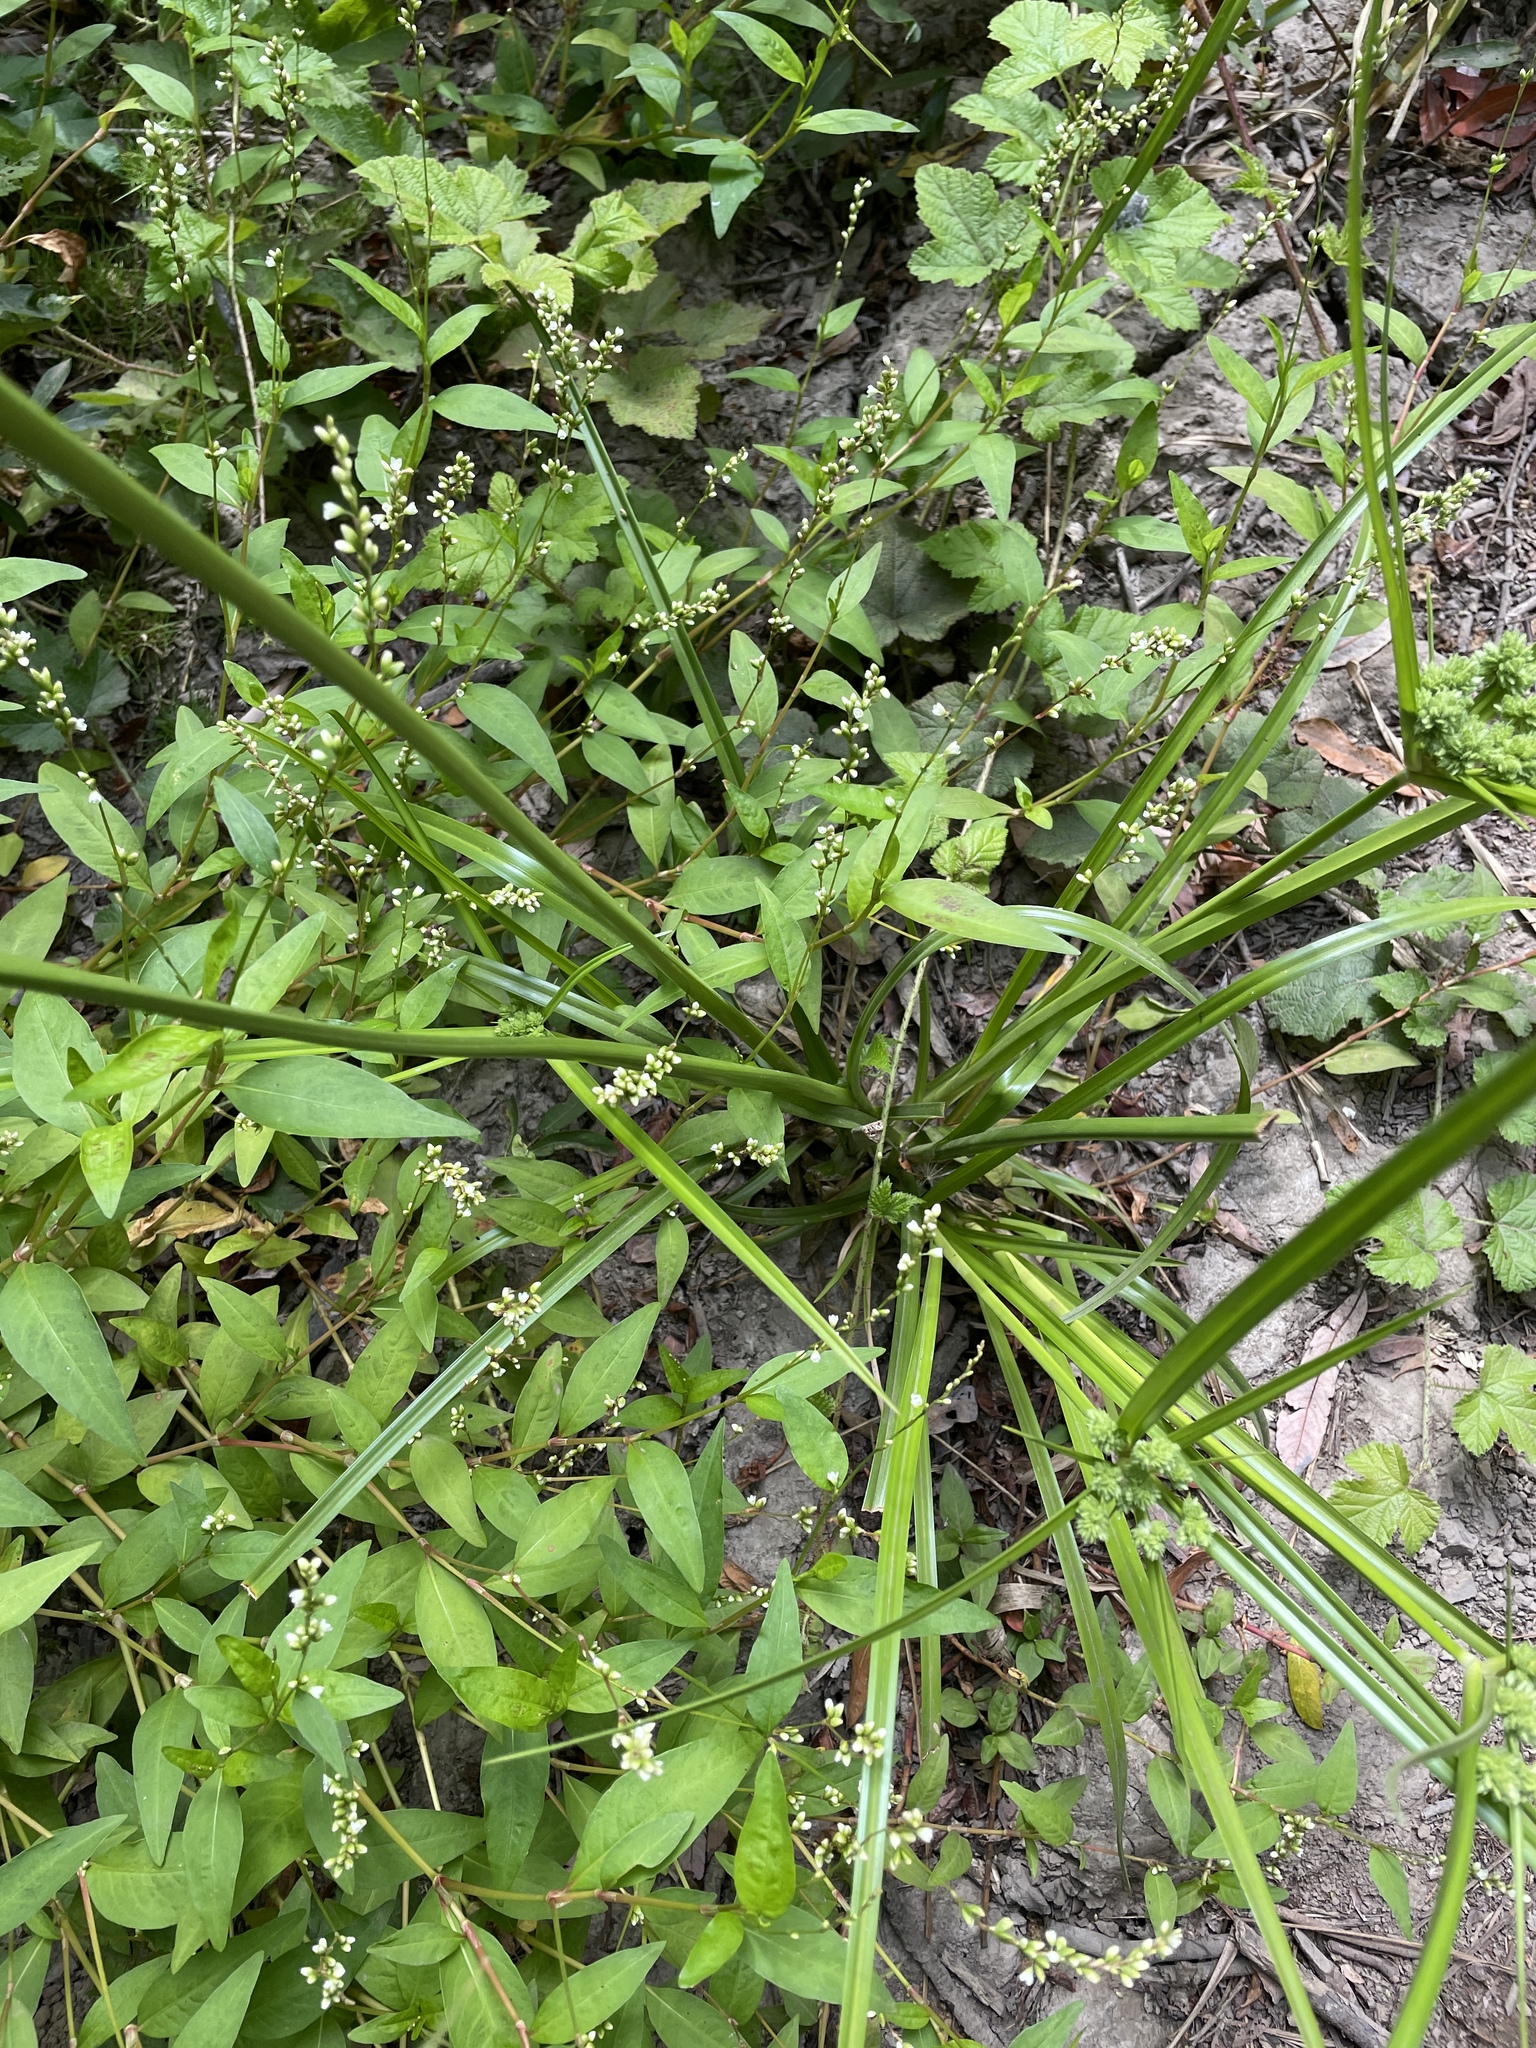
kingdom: Plantae
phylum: Tracheophyta
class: Liliopsida
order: Poales
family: Cyperaceae
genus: Cyperus
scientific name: Cyperus eragrostis
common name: Tall flatsedge
